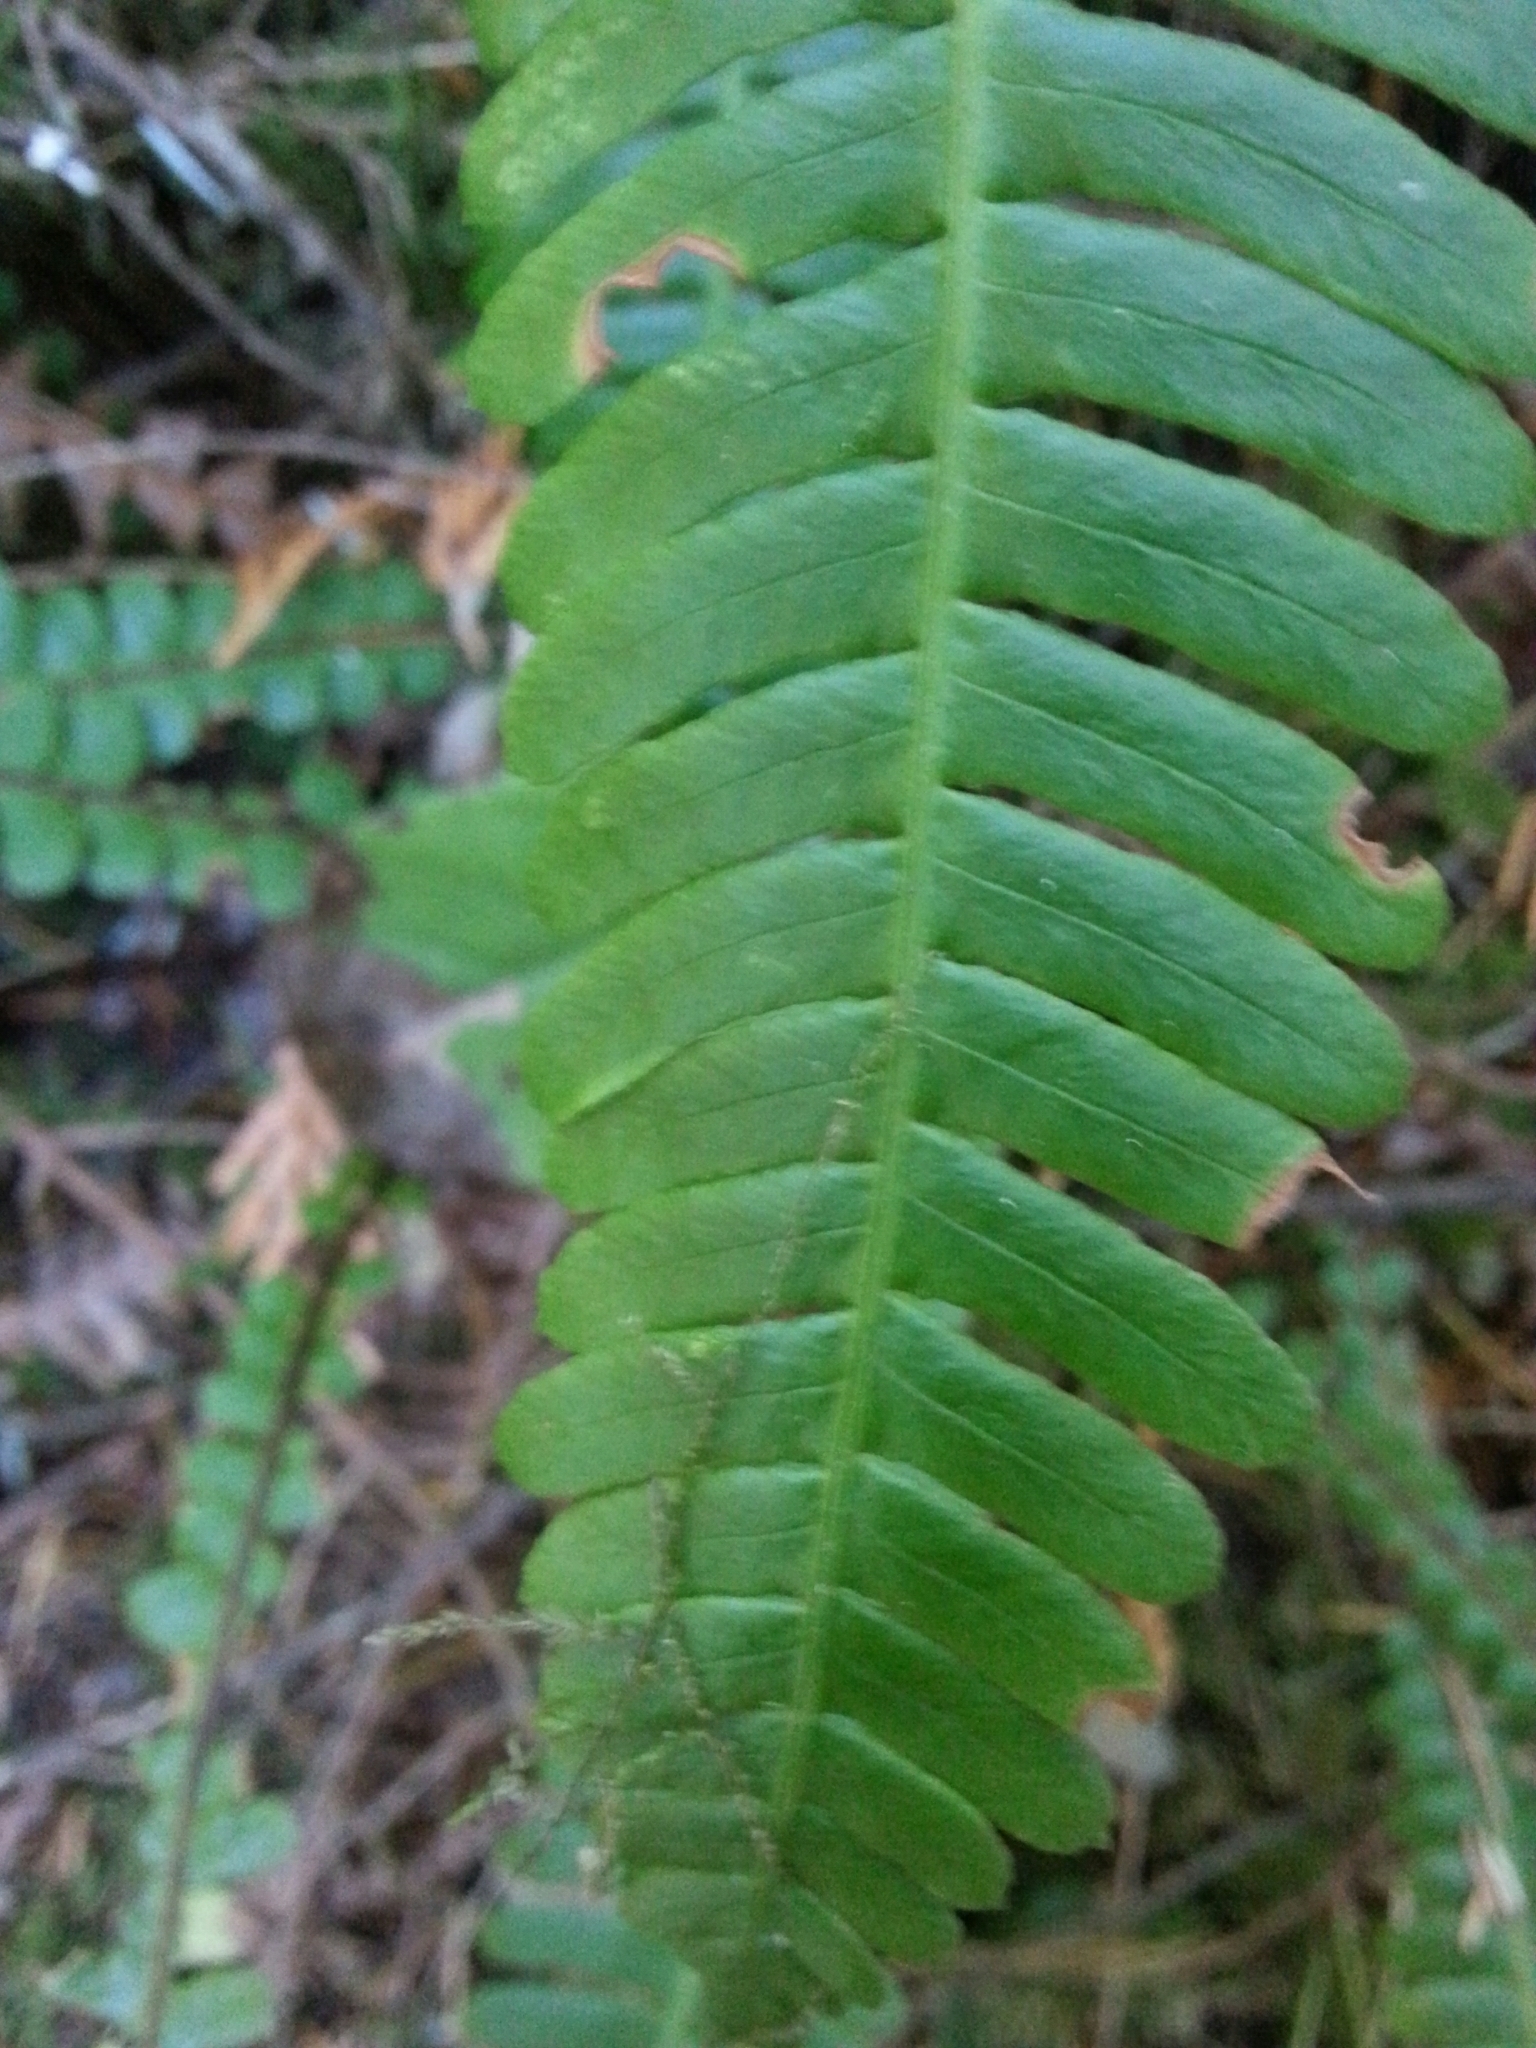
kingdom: Plantae
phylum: Tracheophyta
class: Polypodiopsida
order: Polypodiales
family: Blechnaceae
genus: Struthiopteris
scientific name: Struthiopteris spicant
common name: Deer fern
